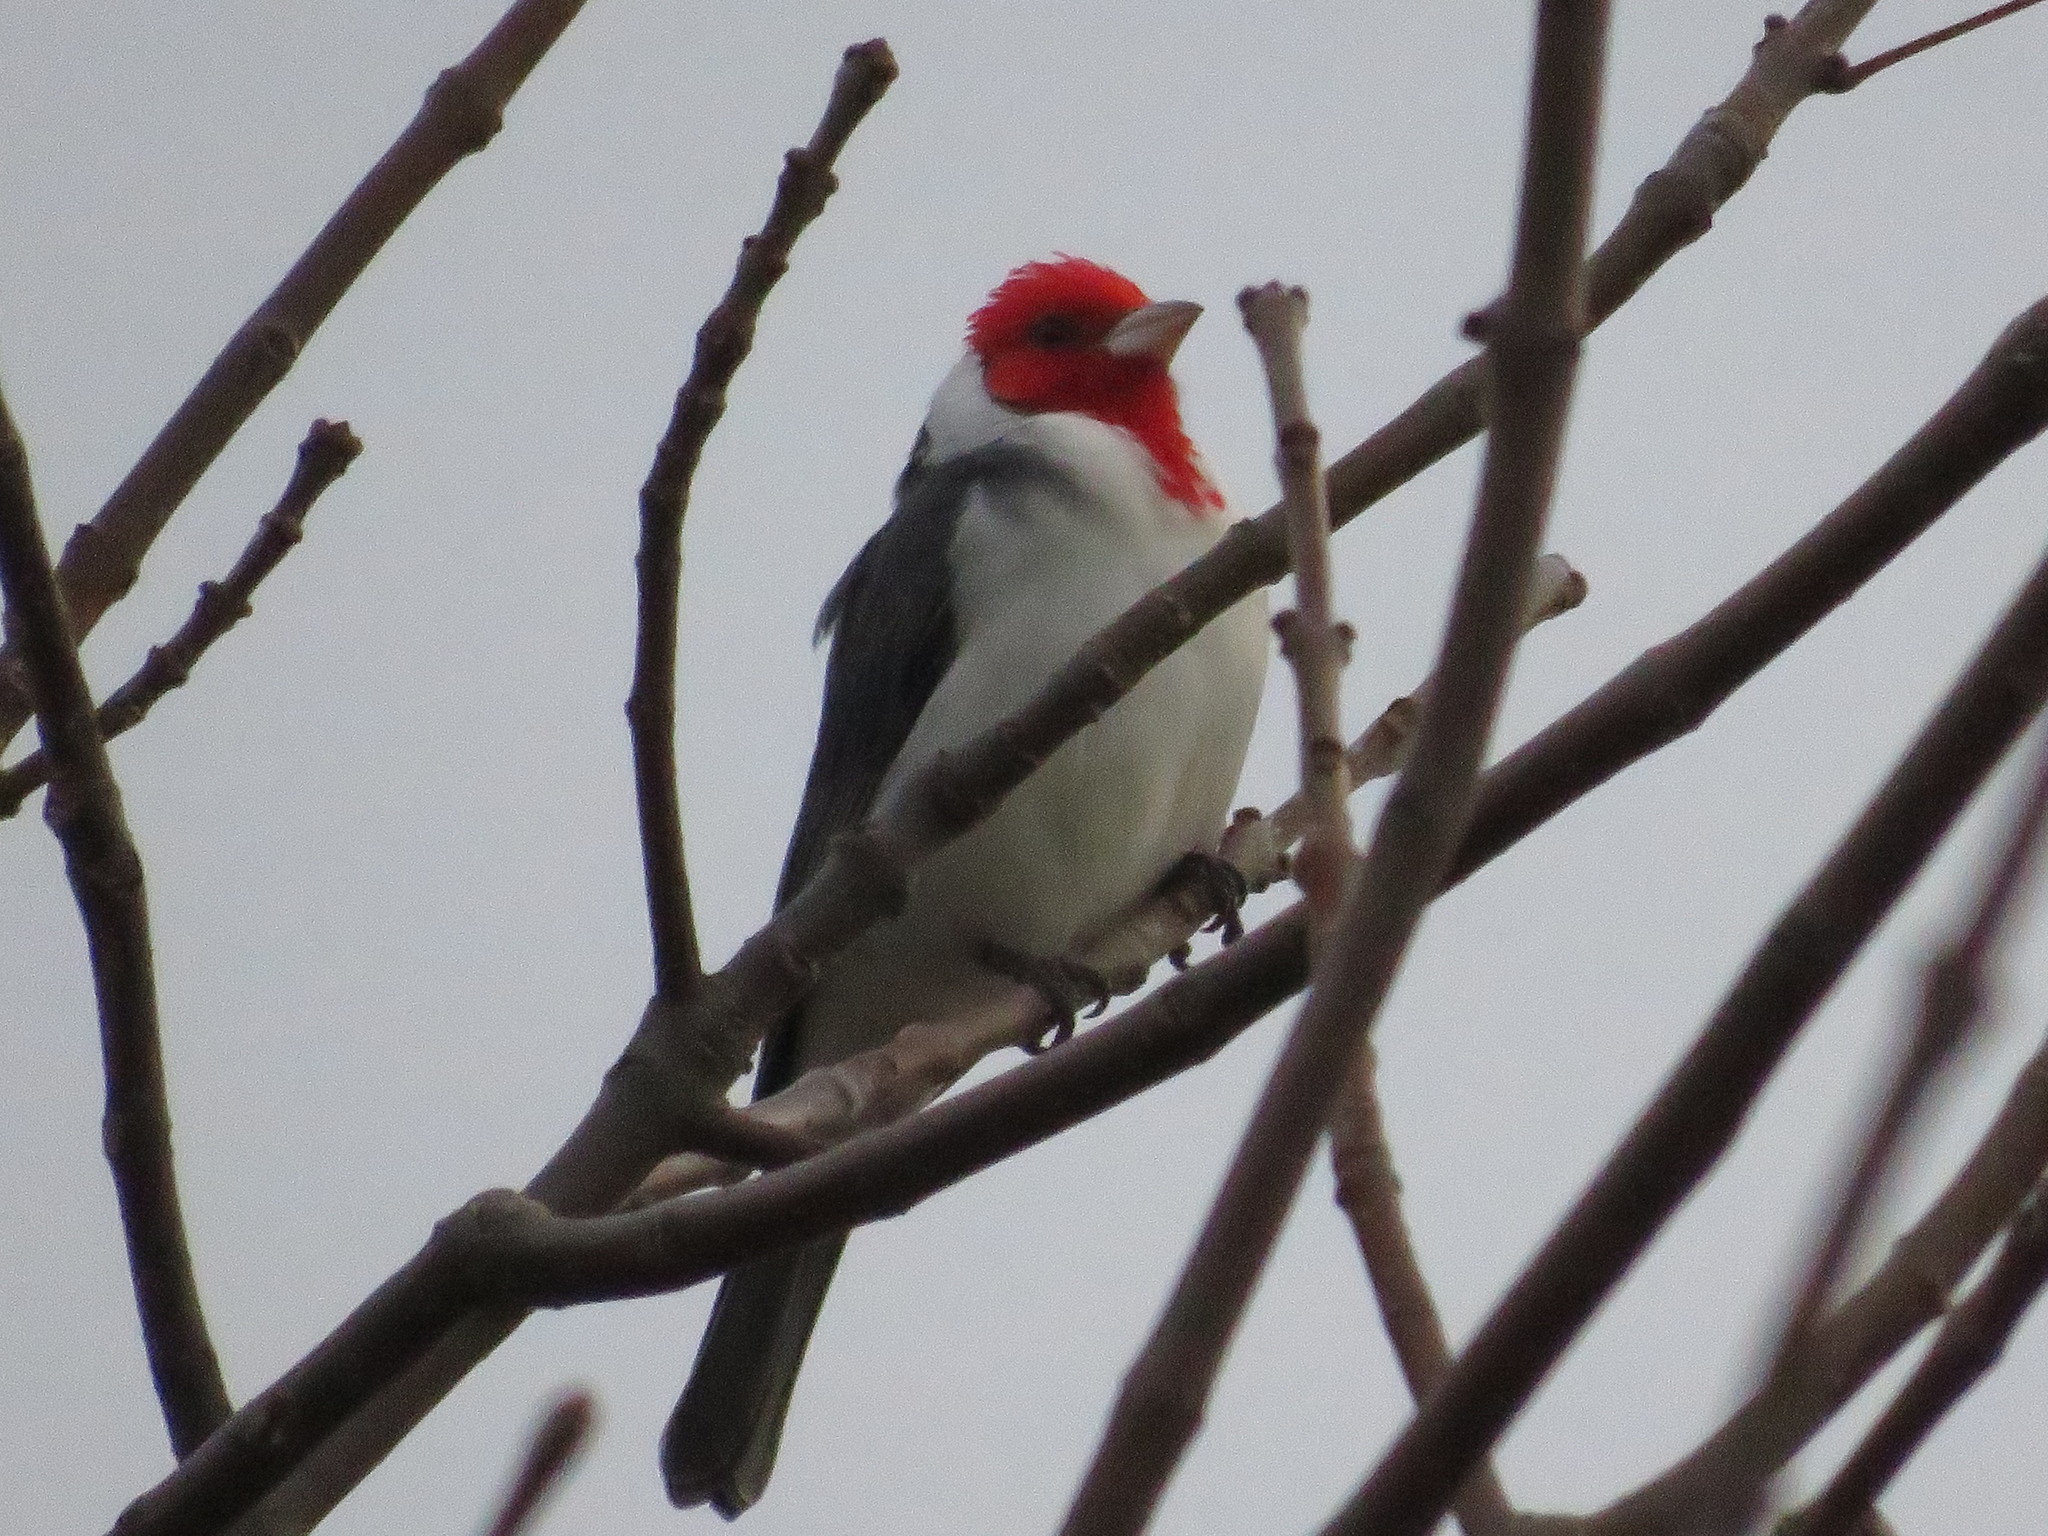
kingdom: Animalia
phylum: Chordata
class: Aves
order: Passeriformes
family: Thraupidae
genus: Paroaria
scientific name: Paroaria coronata
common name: Red-crested cardinal
